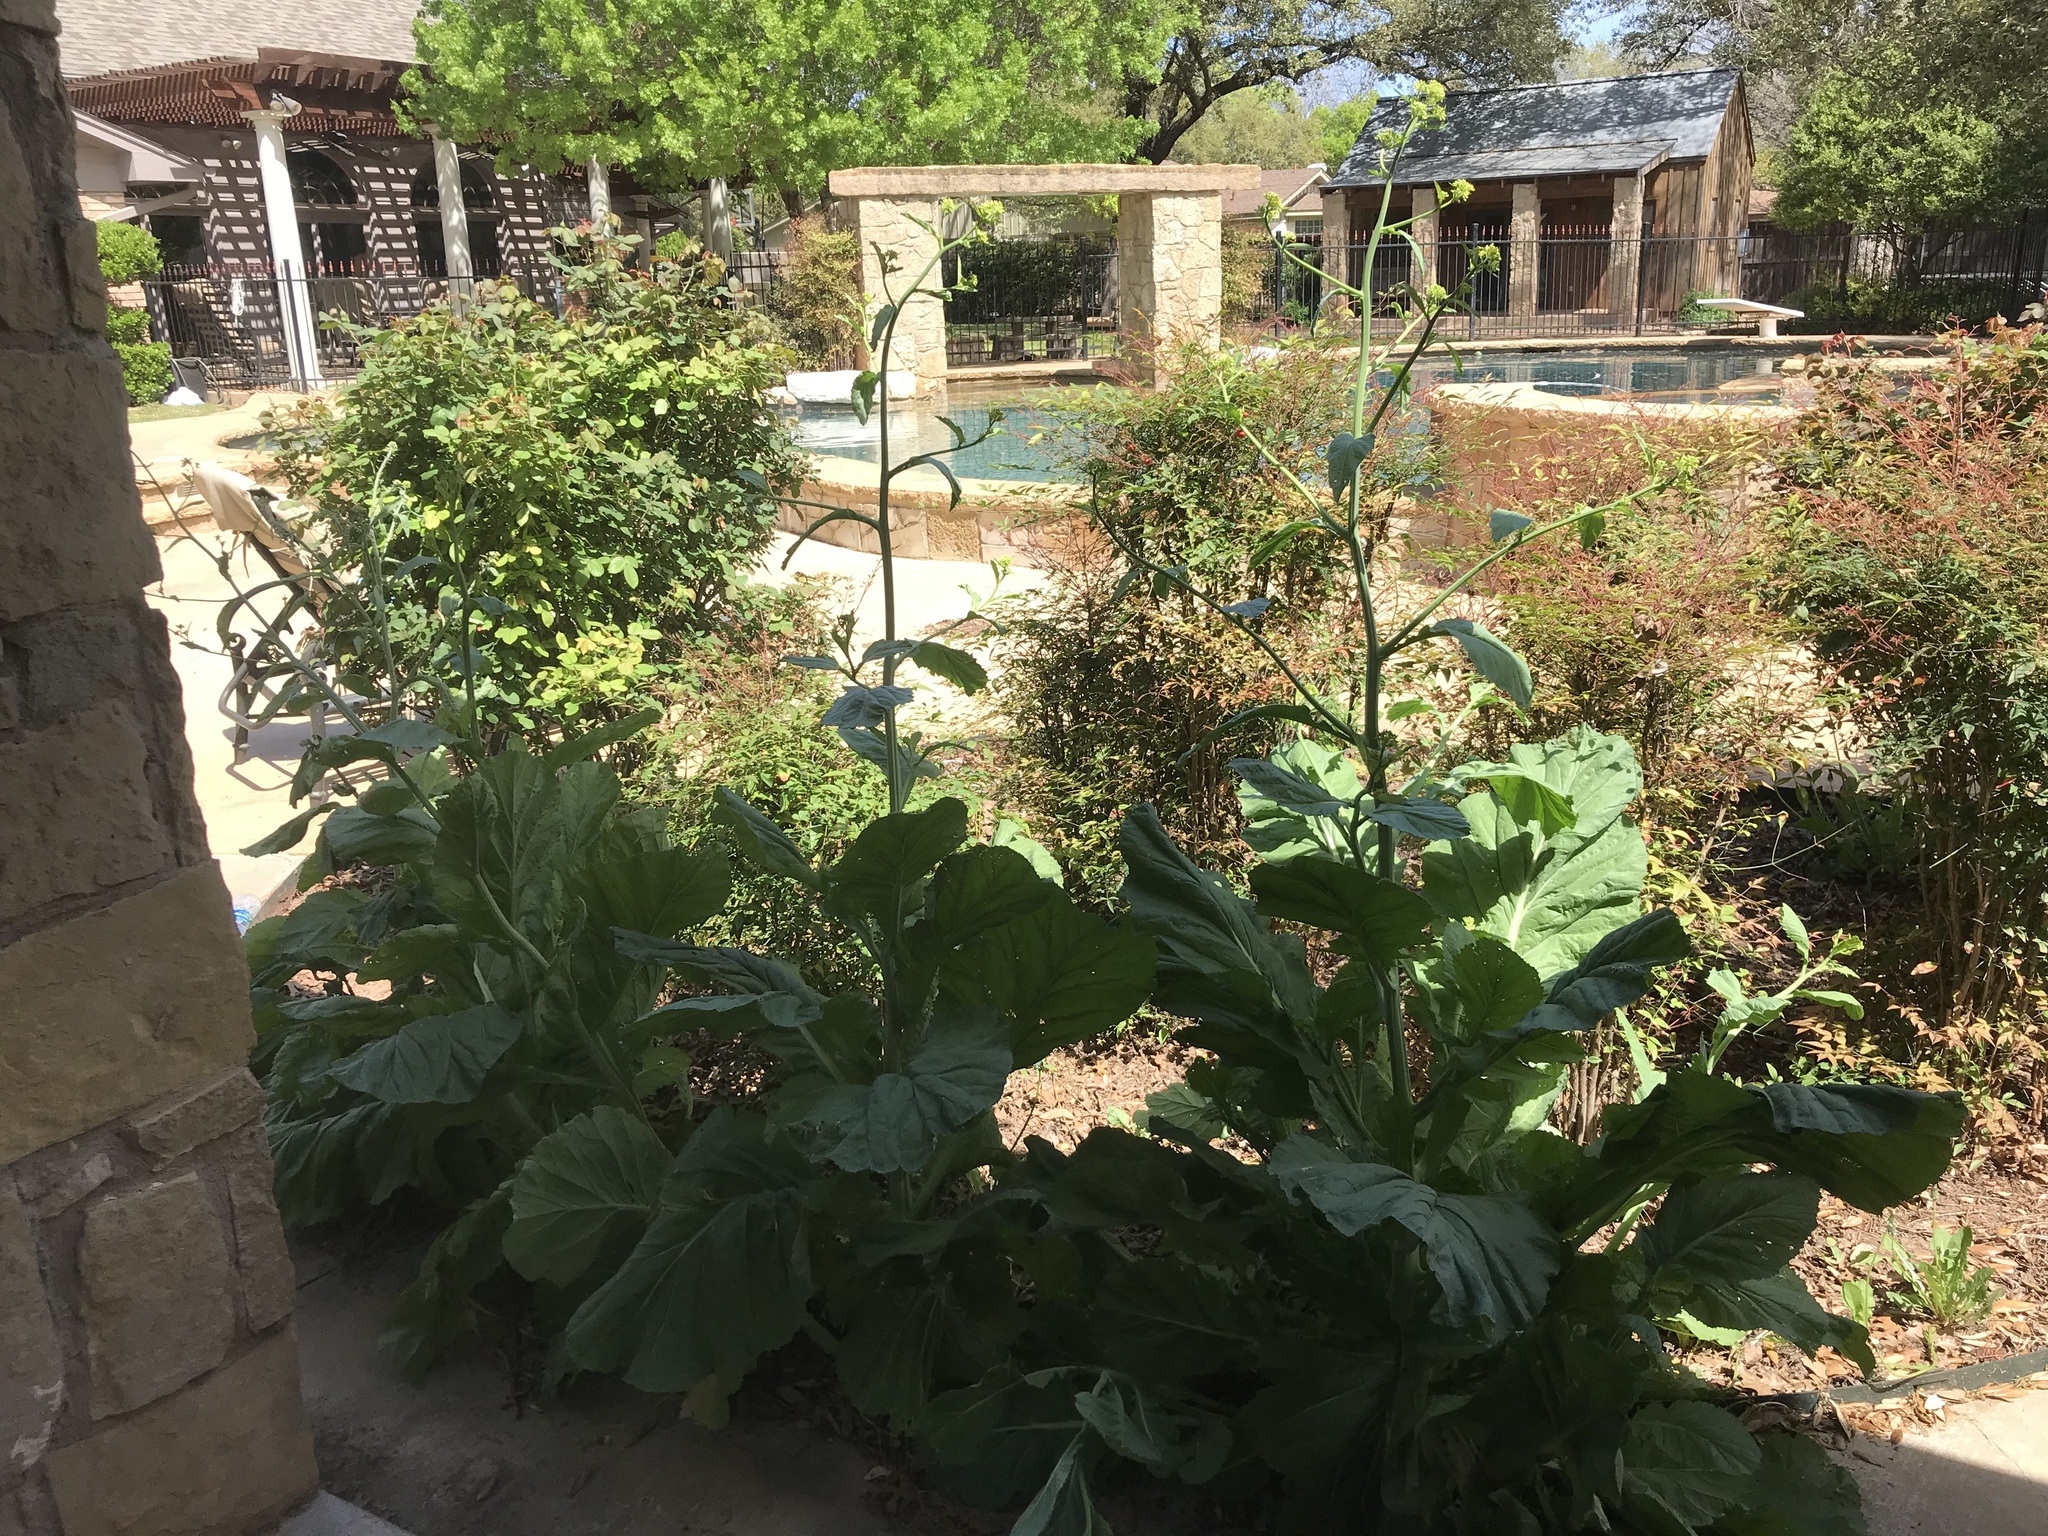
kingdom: Plantae
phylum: Tracheophyta
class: Magnoliopsida
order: Brassicales
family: Brassicaceae
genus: Brassica
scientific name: Brassica napus
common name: Rape
